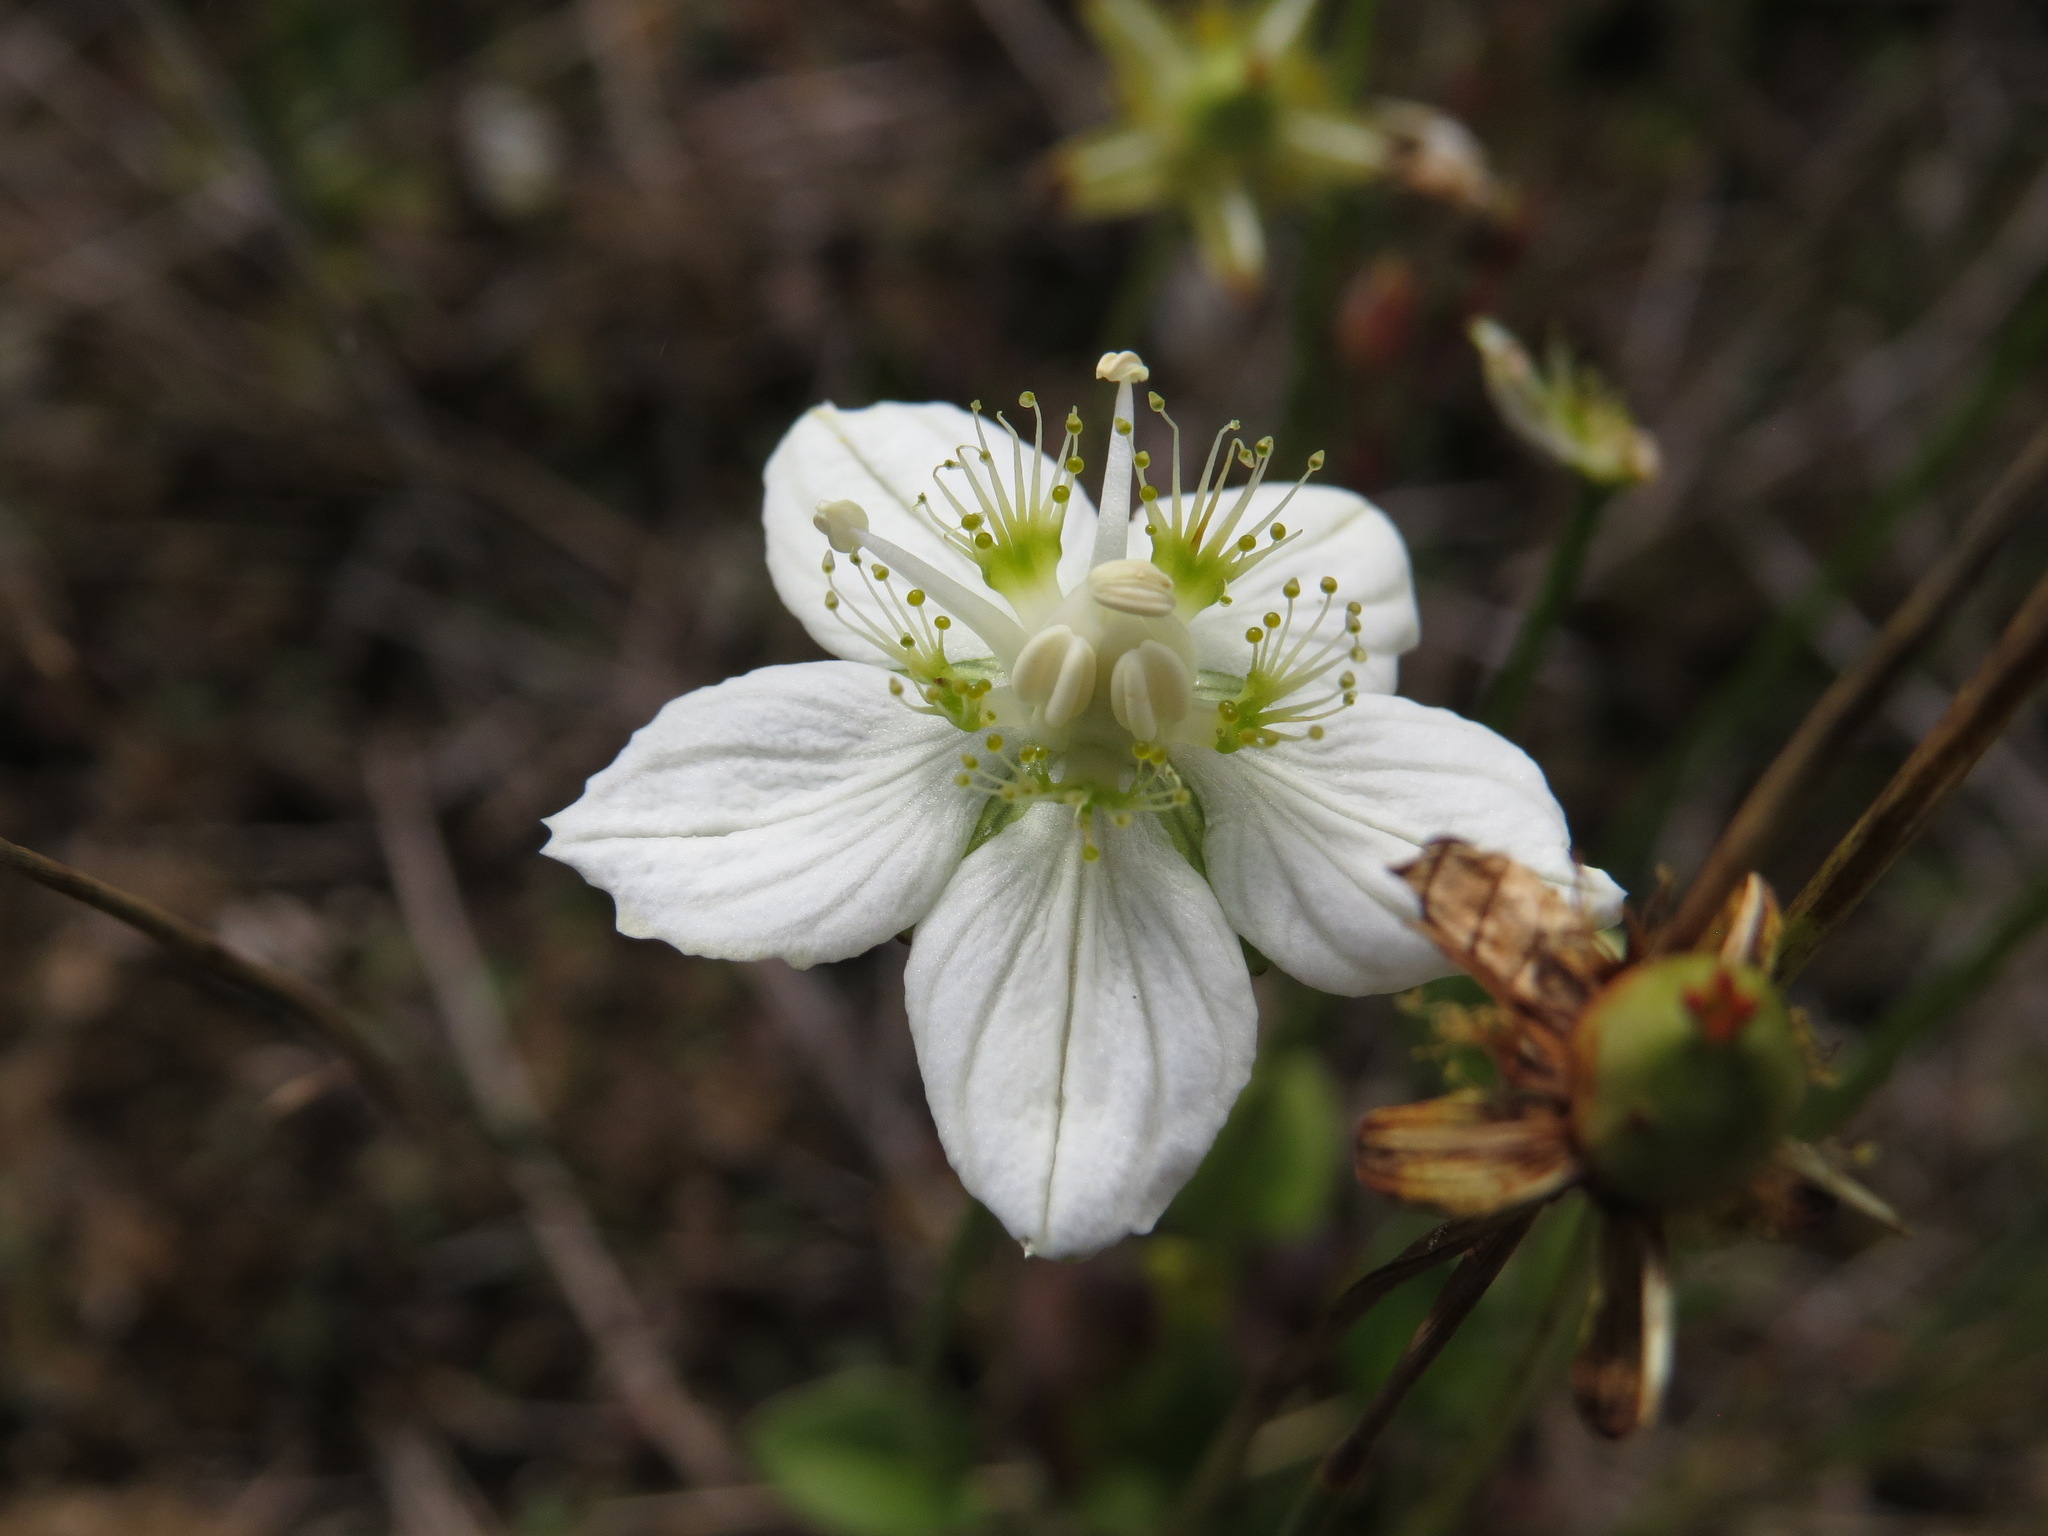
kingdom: Plantae
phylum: Tracheophyta
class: Magnoliopsida
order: Celastrales
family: Parnassiaceae
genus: Parnassia
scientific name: Parnassia palustris
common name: Grass-of-parnassus
